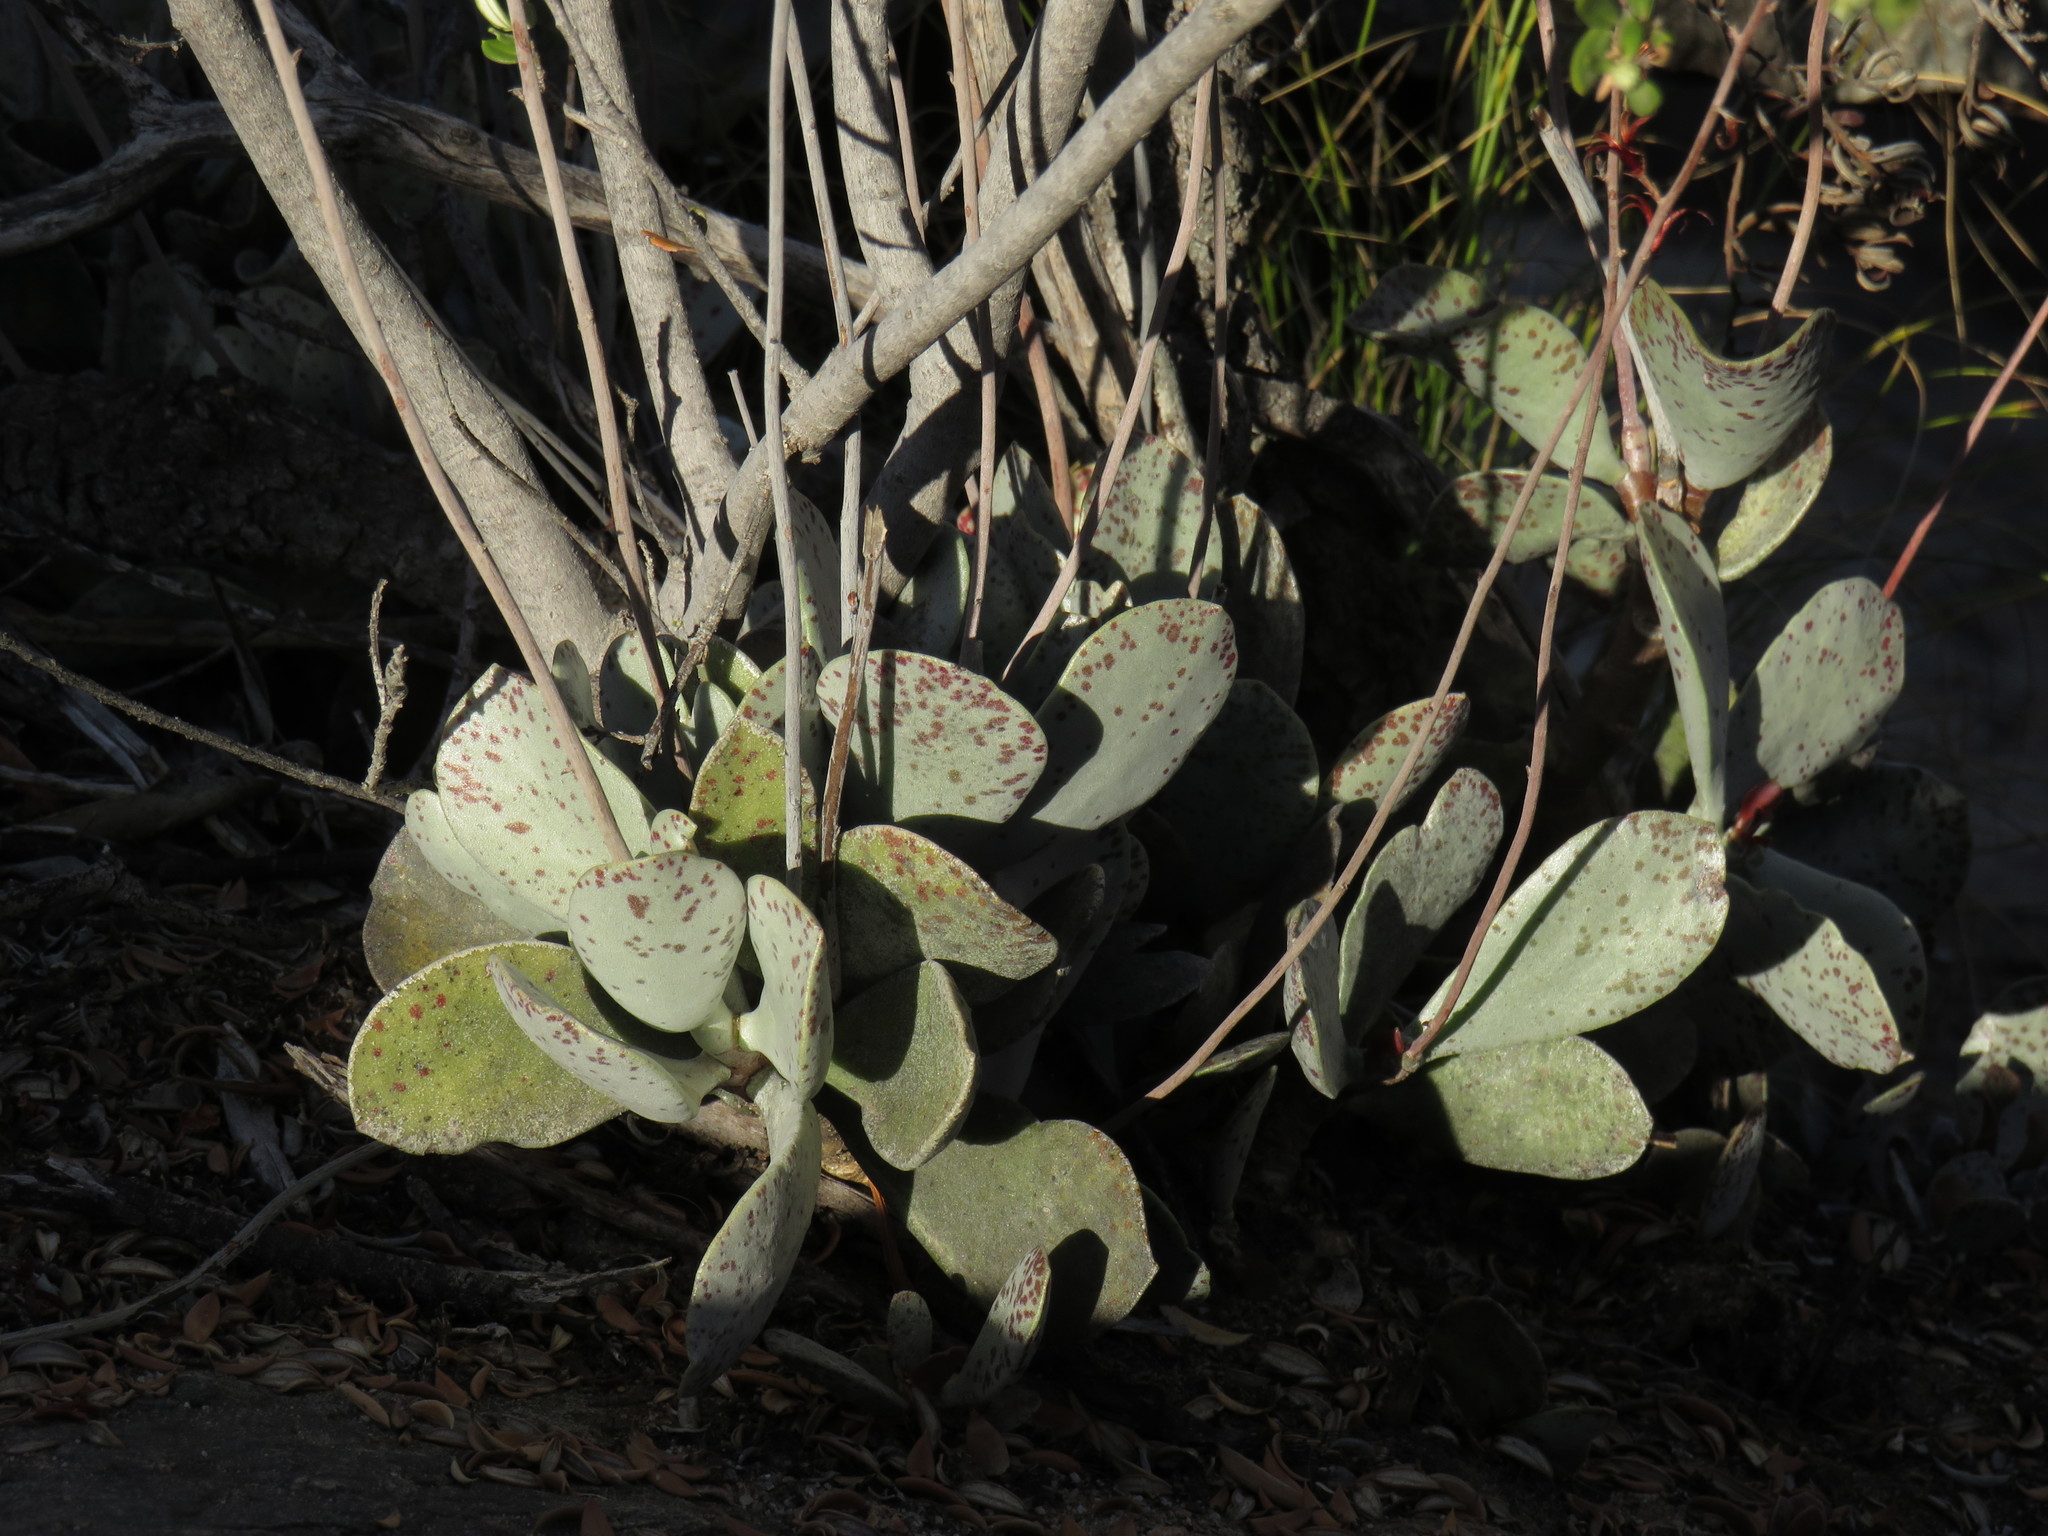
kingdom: Plantae
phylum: Tracheophyta
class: Magnoliopsida
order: Saxifragales
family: Crassulaceae
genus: Adromischus
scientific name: Adromischus hemisphaericus
